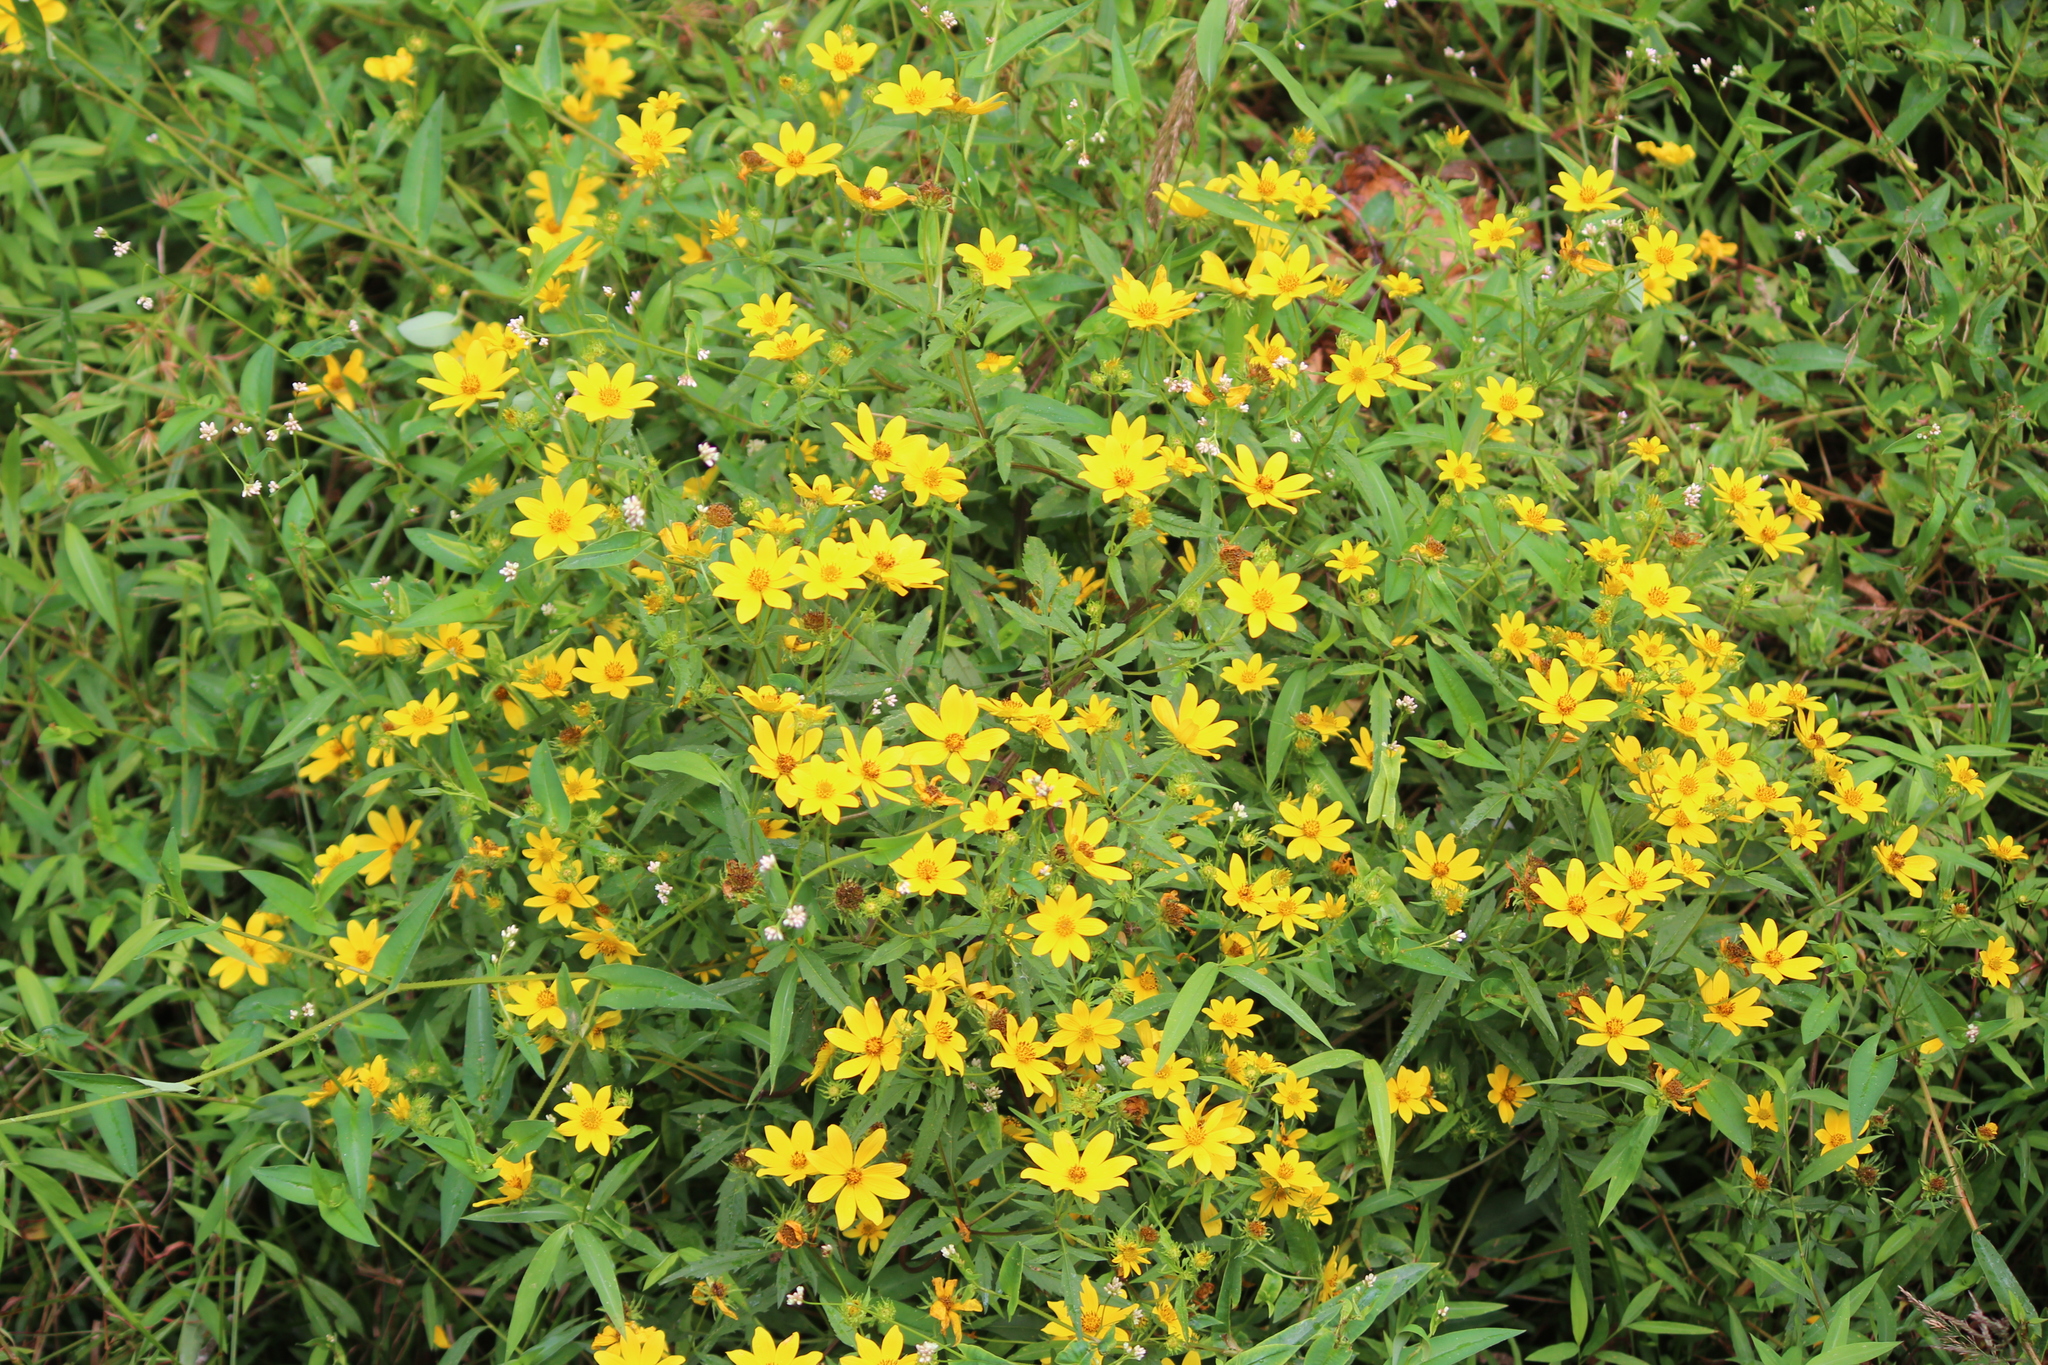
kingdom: Plantae
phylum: Tracheophyta
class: Magnoliopsida
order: Asterales
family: Asteraceae
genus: Bidens
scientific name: Bidens aristosa
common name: Western tickseed
